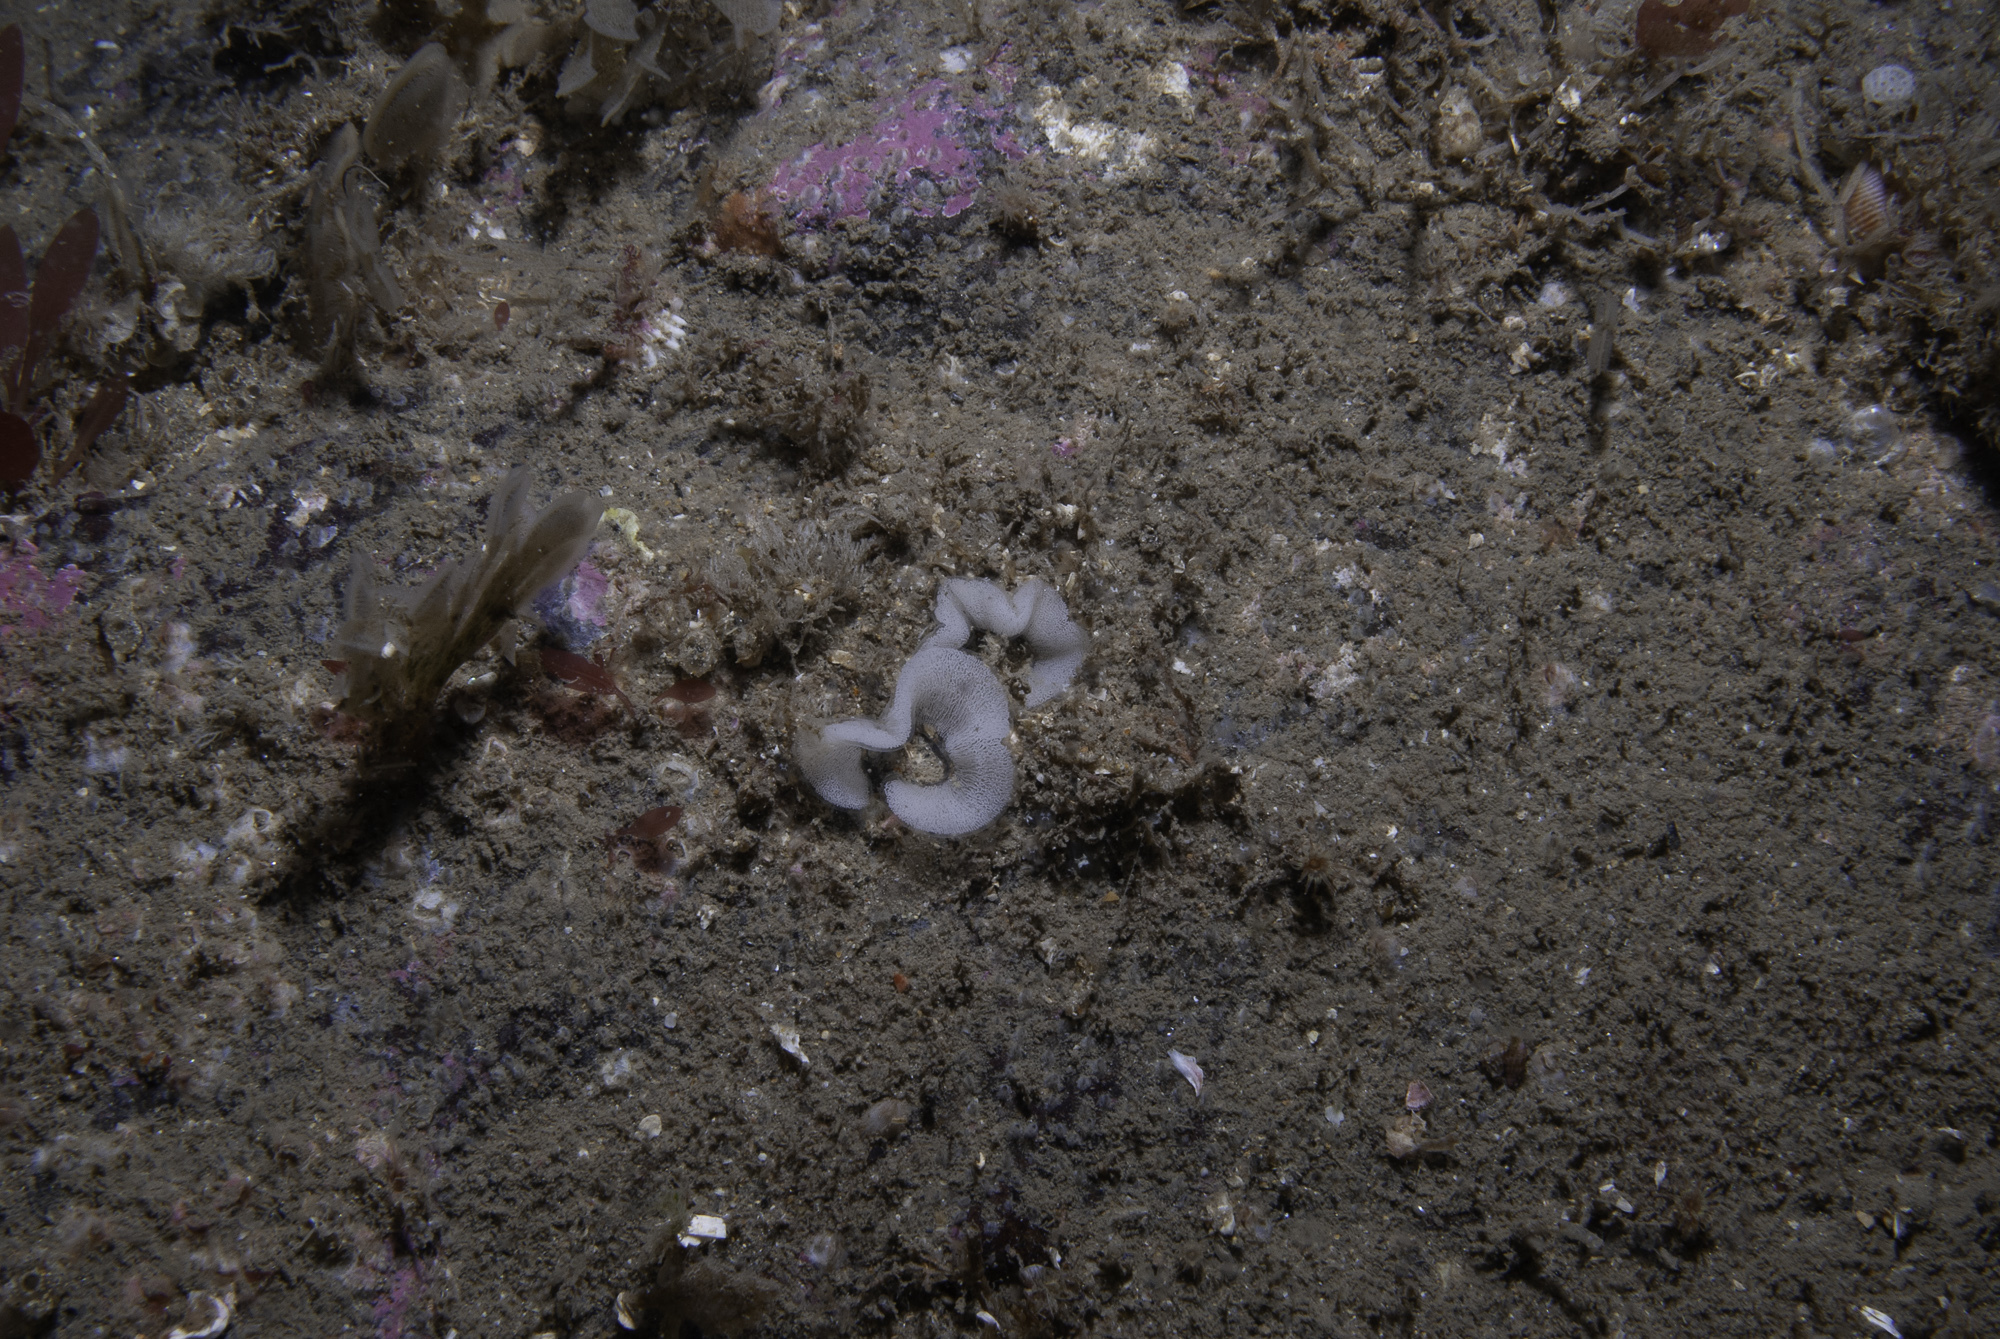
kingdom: Animalia
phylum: Mollusca
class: Gastropoda
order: Nudibranchia
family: Onchidorididae
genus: Onchidoris
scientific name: Onchidoris bilamellata
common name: Barnacle-eating onchidoris
